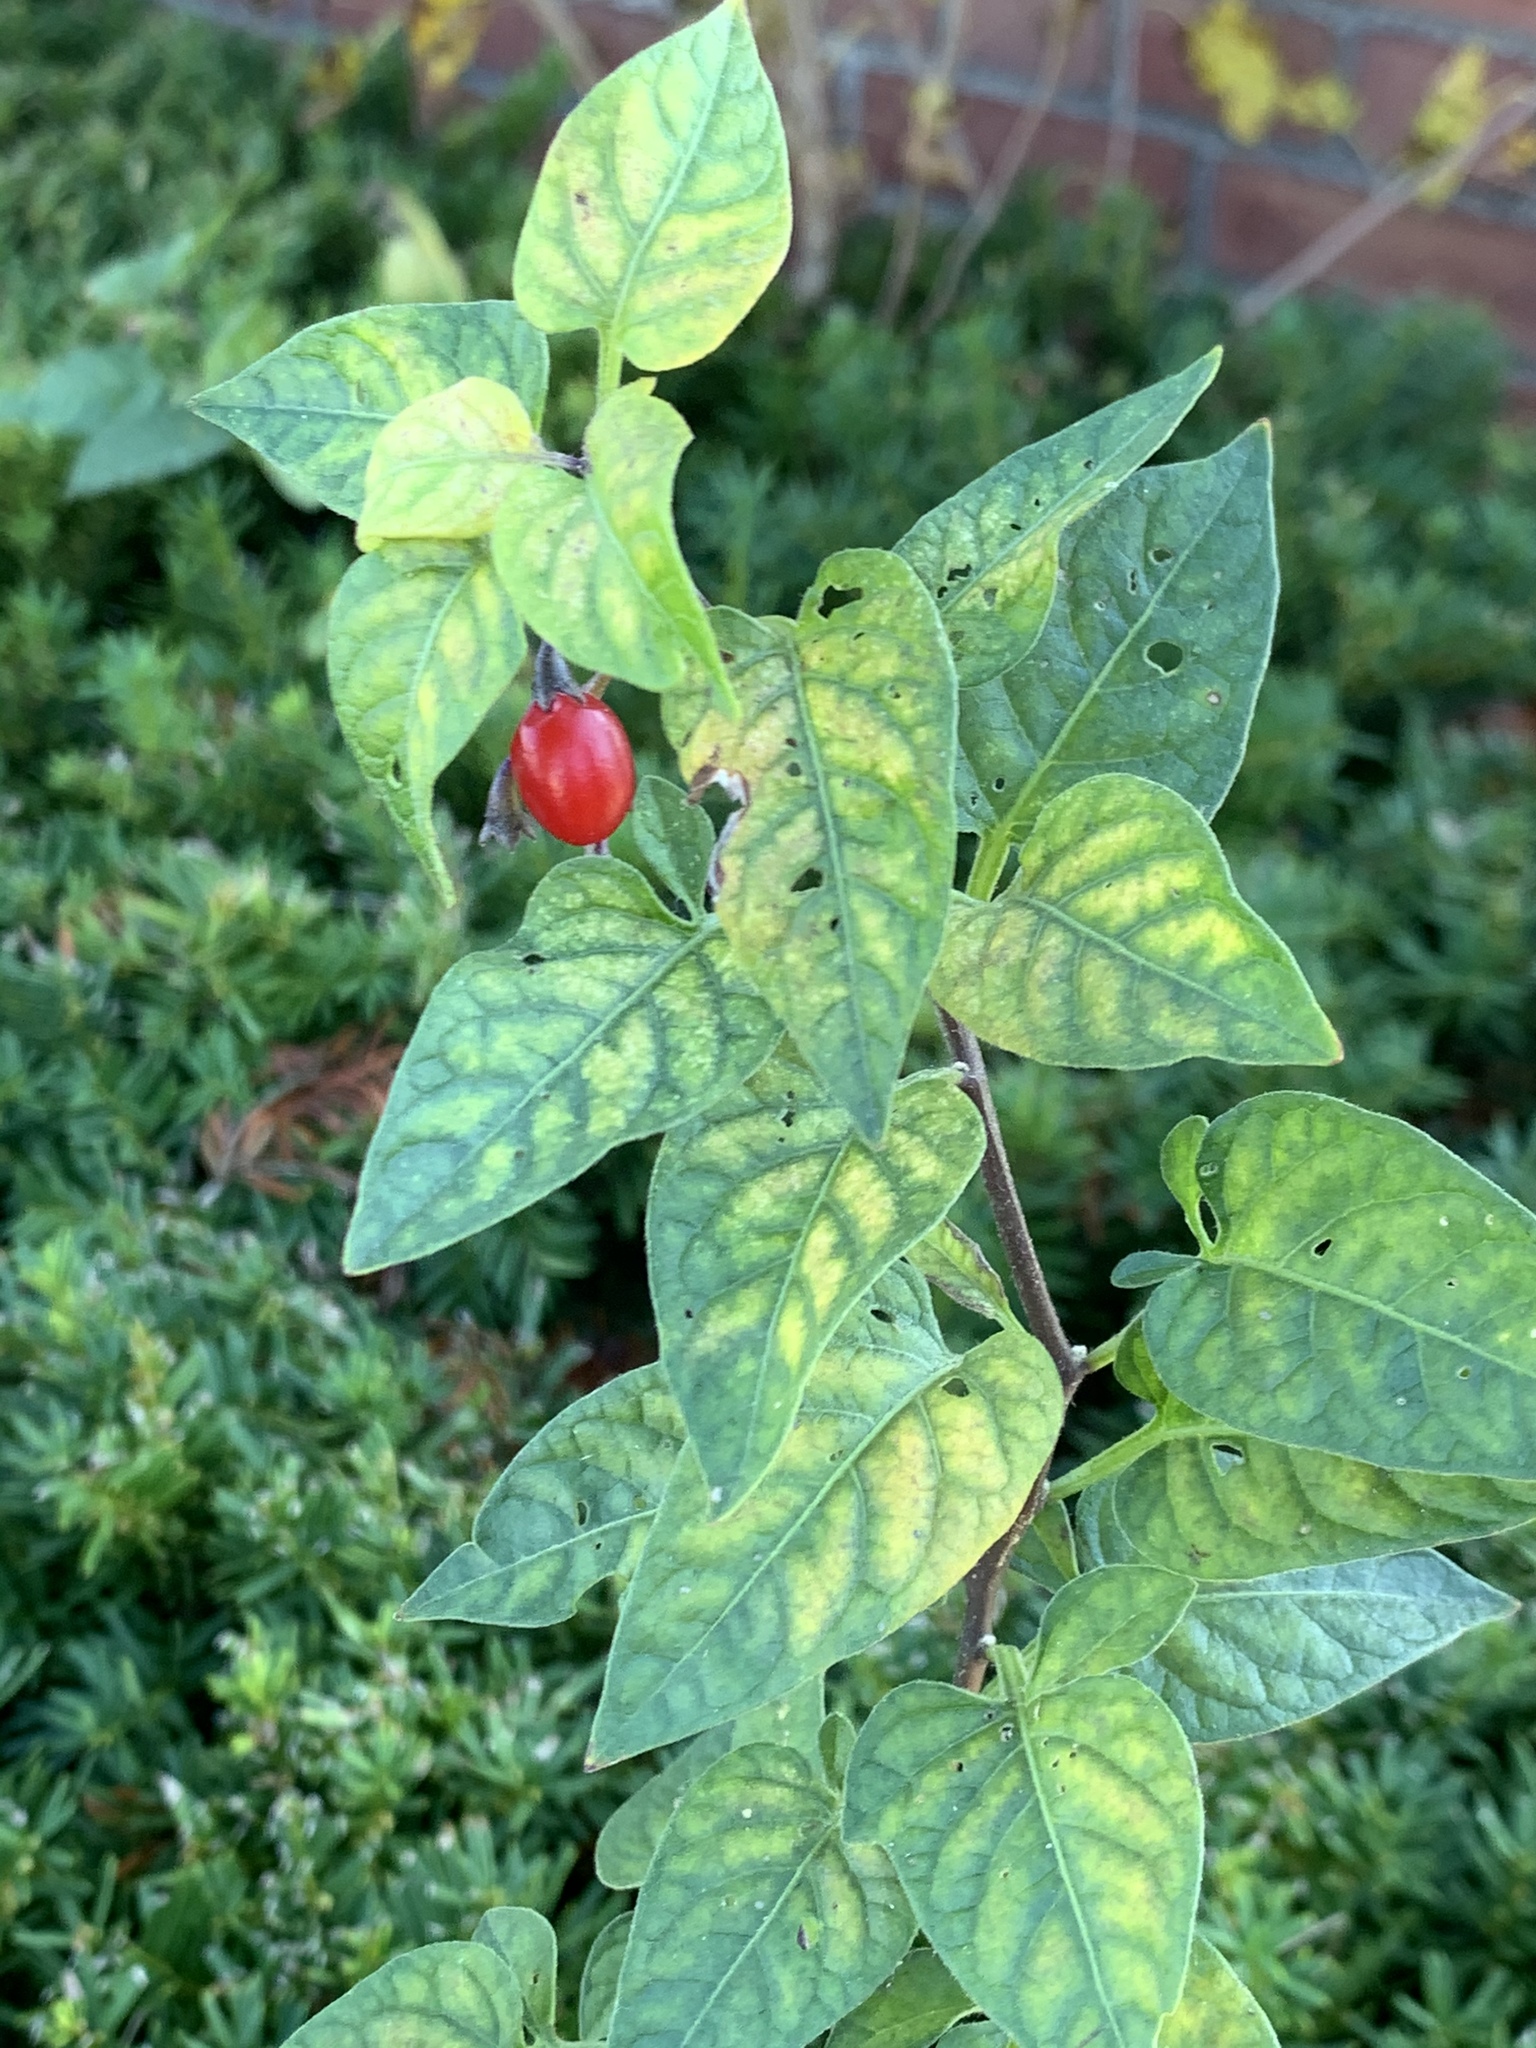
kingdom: Plantae
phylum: Tracheophyta
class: Magnoliopsida
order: Solanales
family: Solanaceae
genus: Solanum
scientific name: Solanum dulcamara
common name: Climbing nightshade
